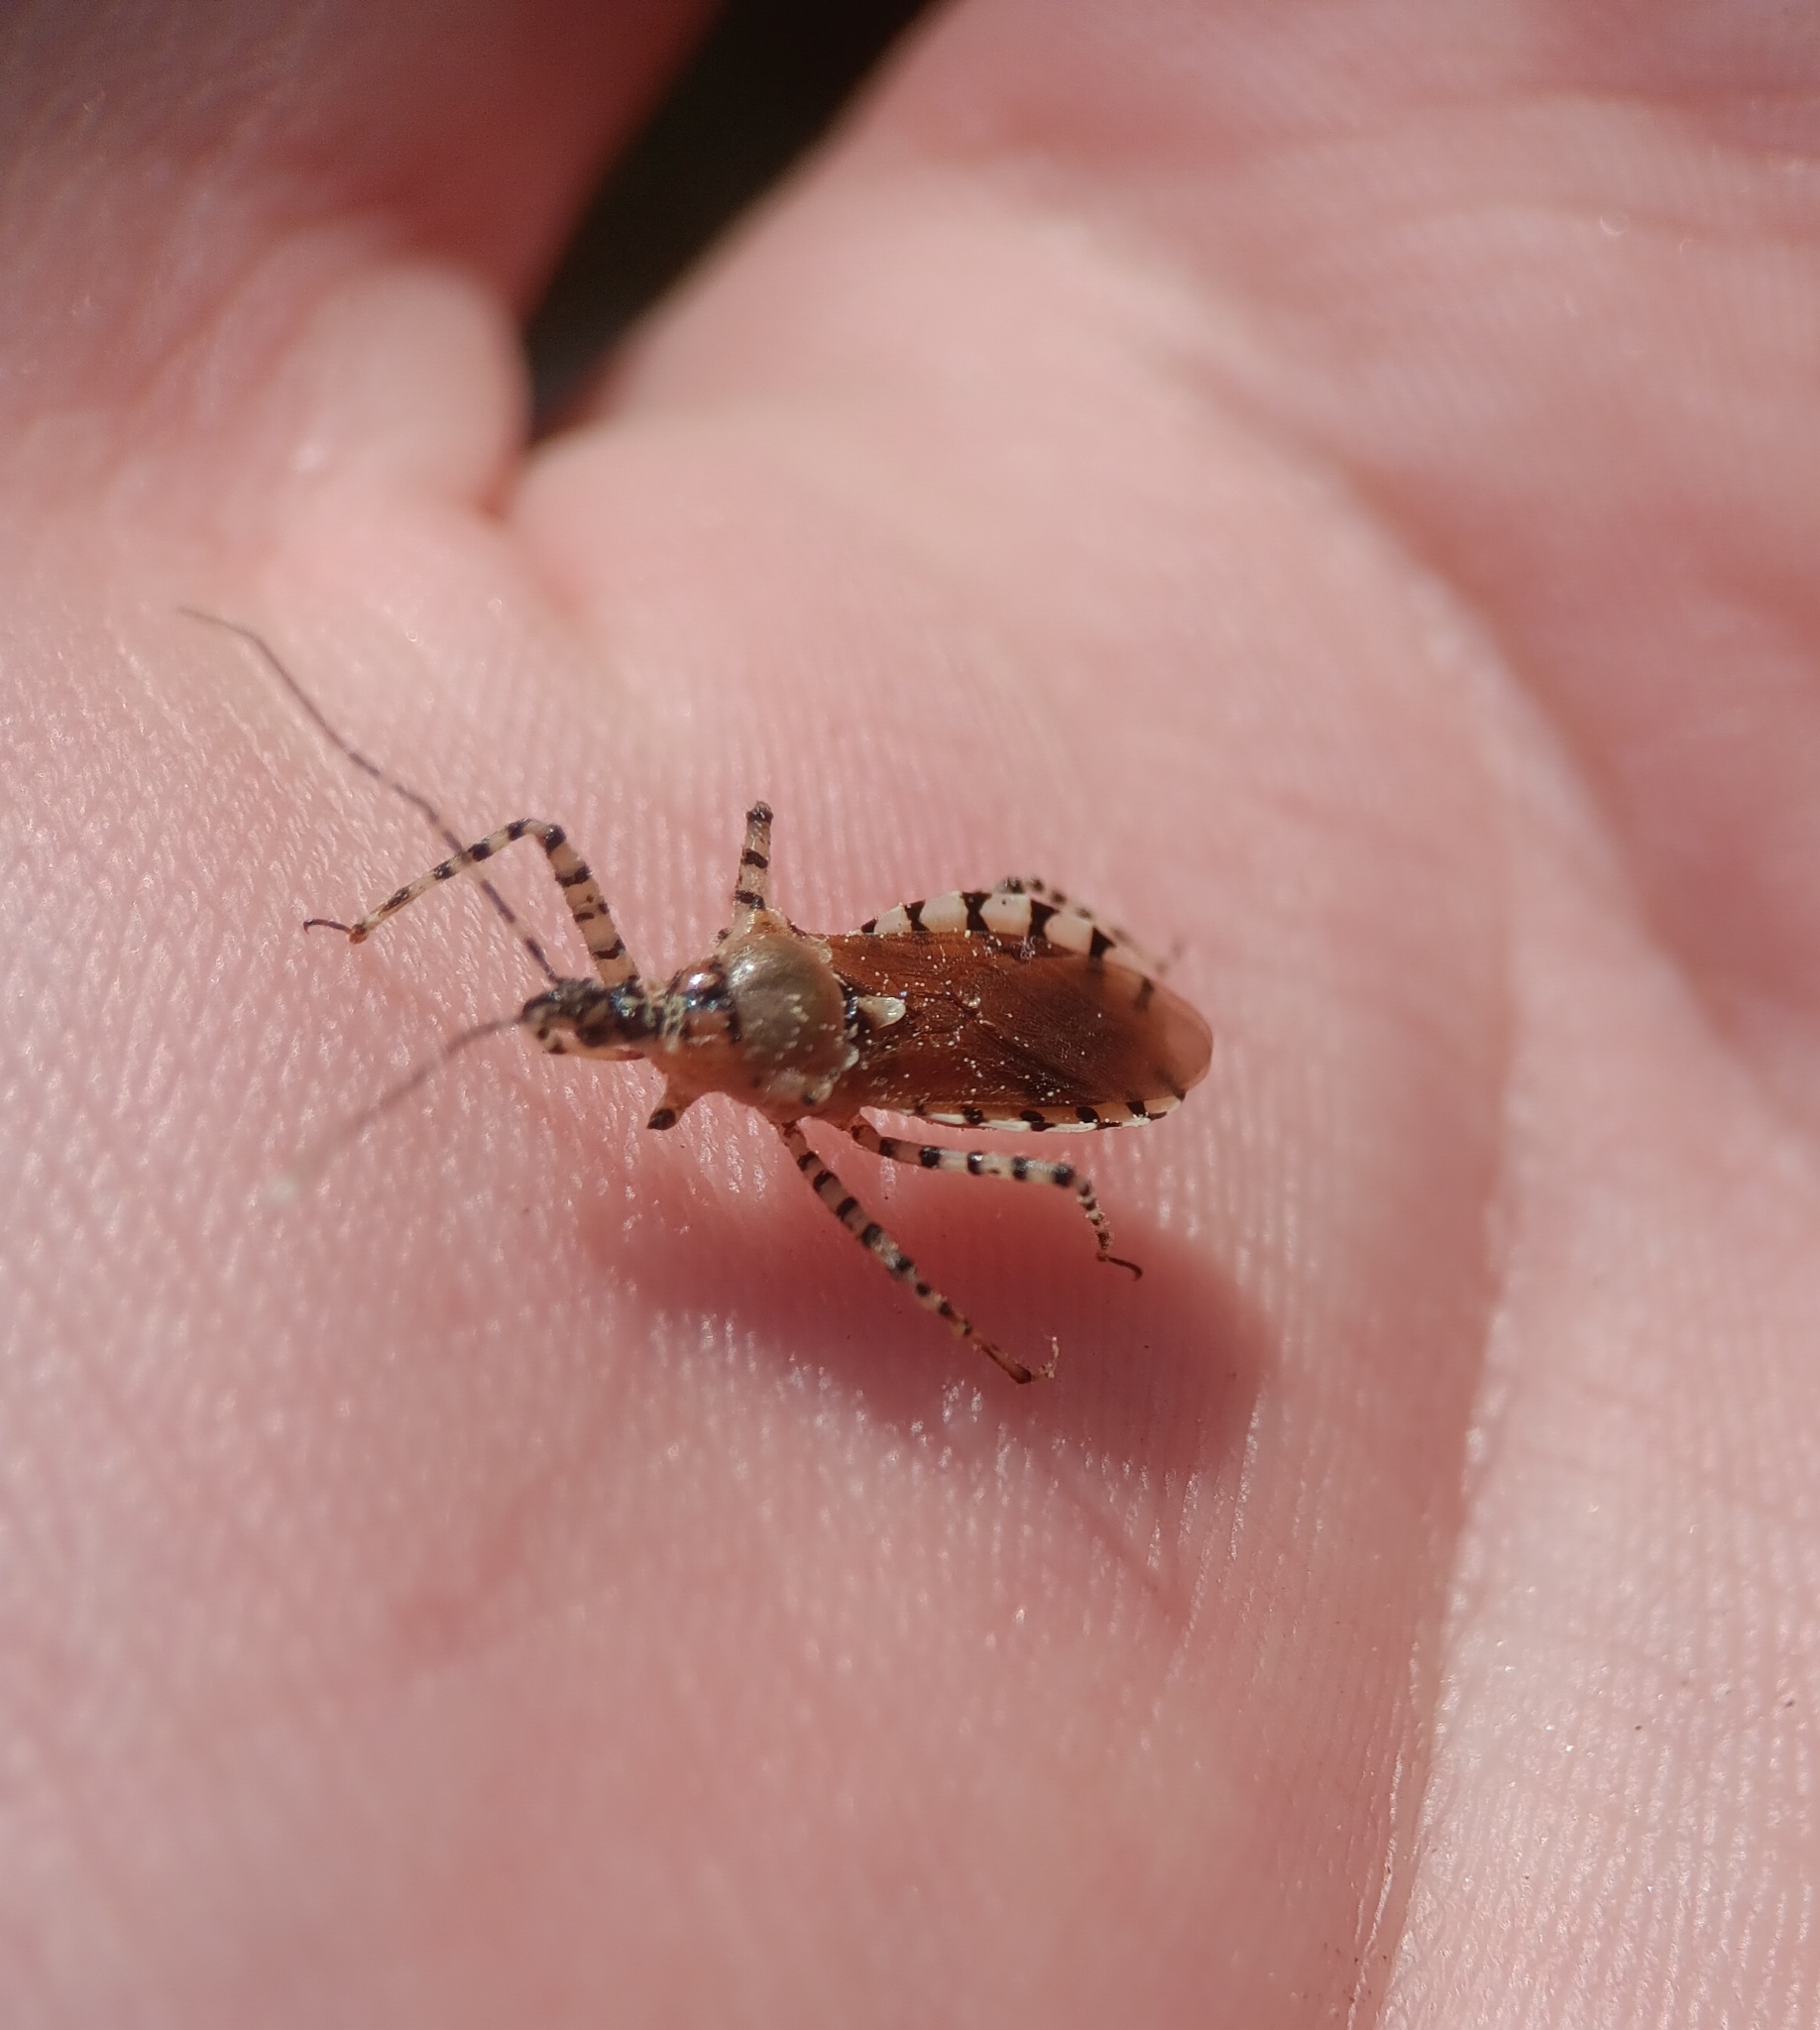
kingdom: Animalia
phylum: Arthropoda
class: Insecta
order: Hemiptera
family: Reduviidae
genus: Pselliopus
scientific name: Pselliopus cinctus
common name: Ringed assassin bug
